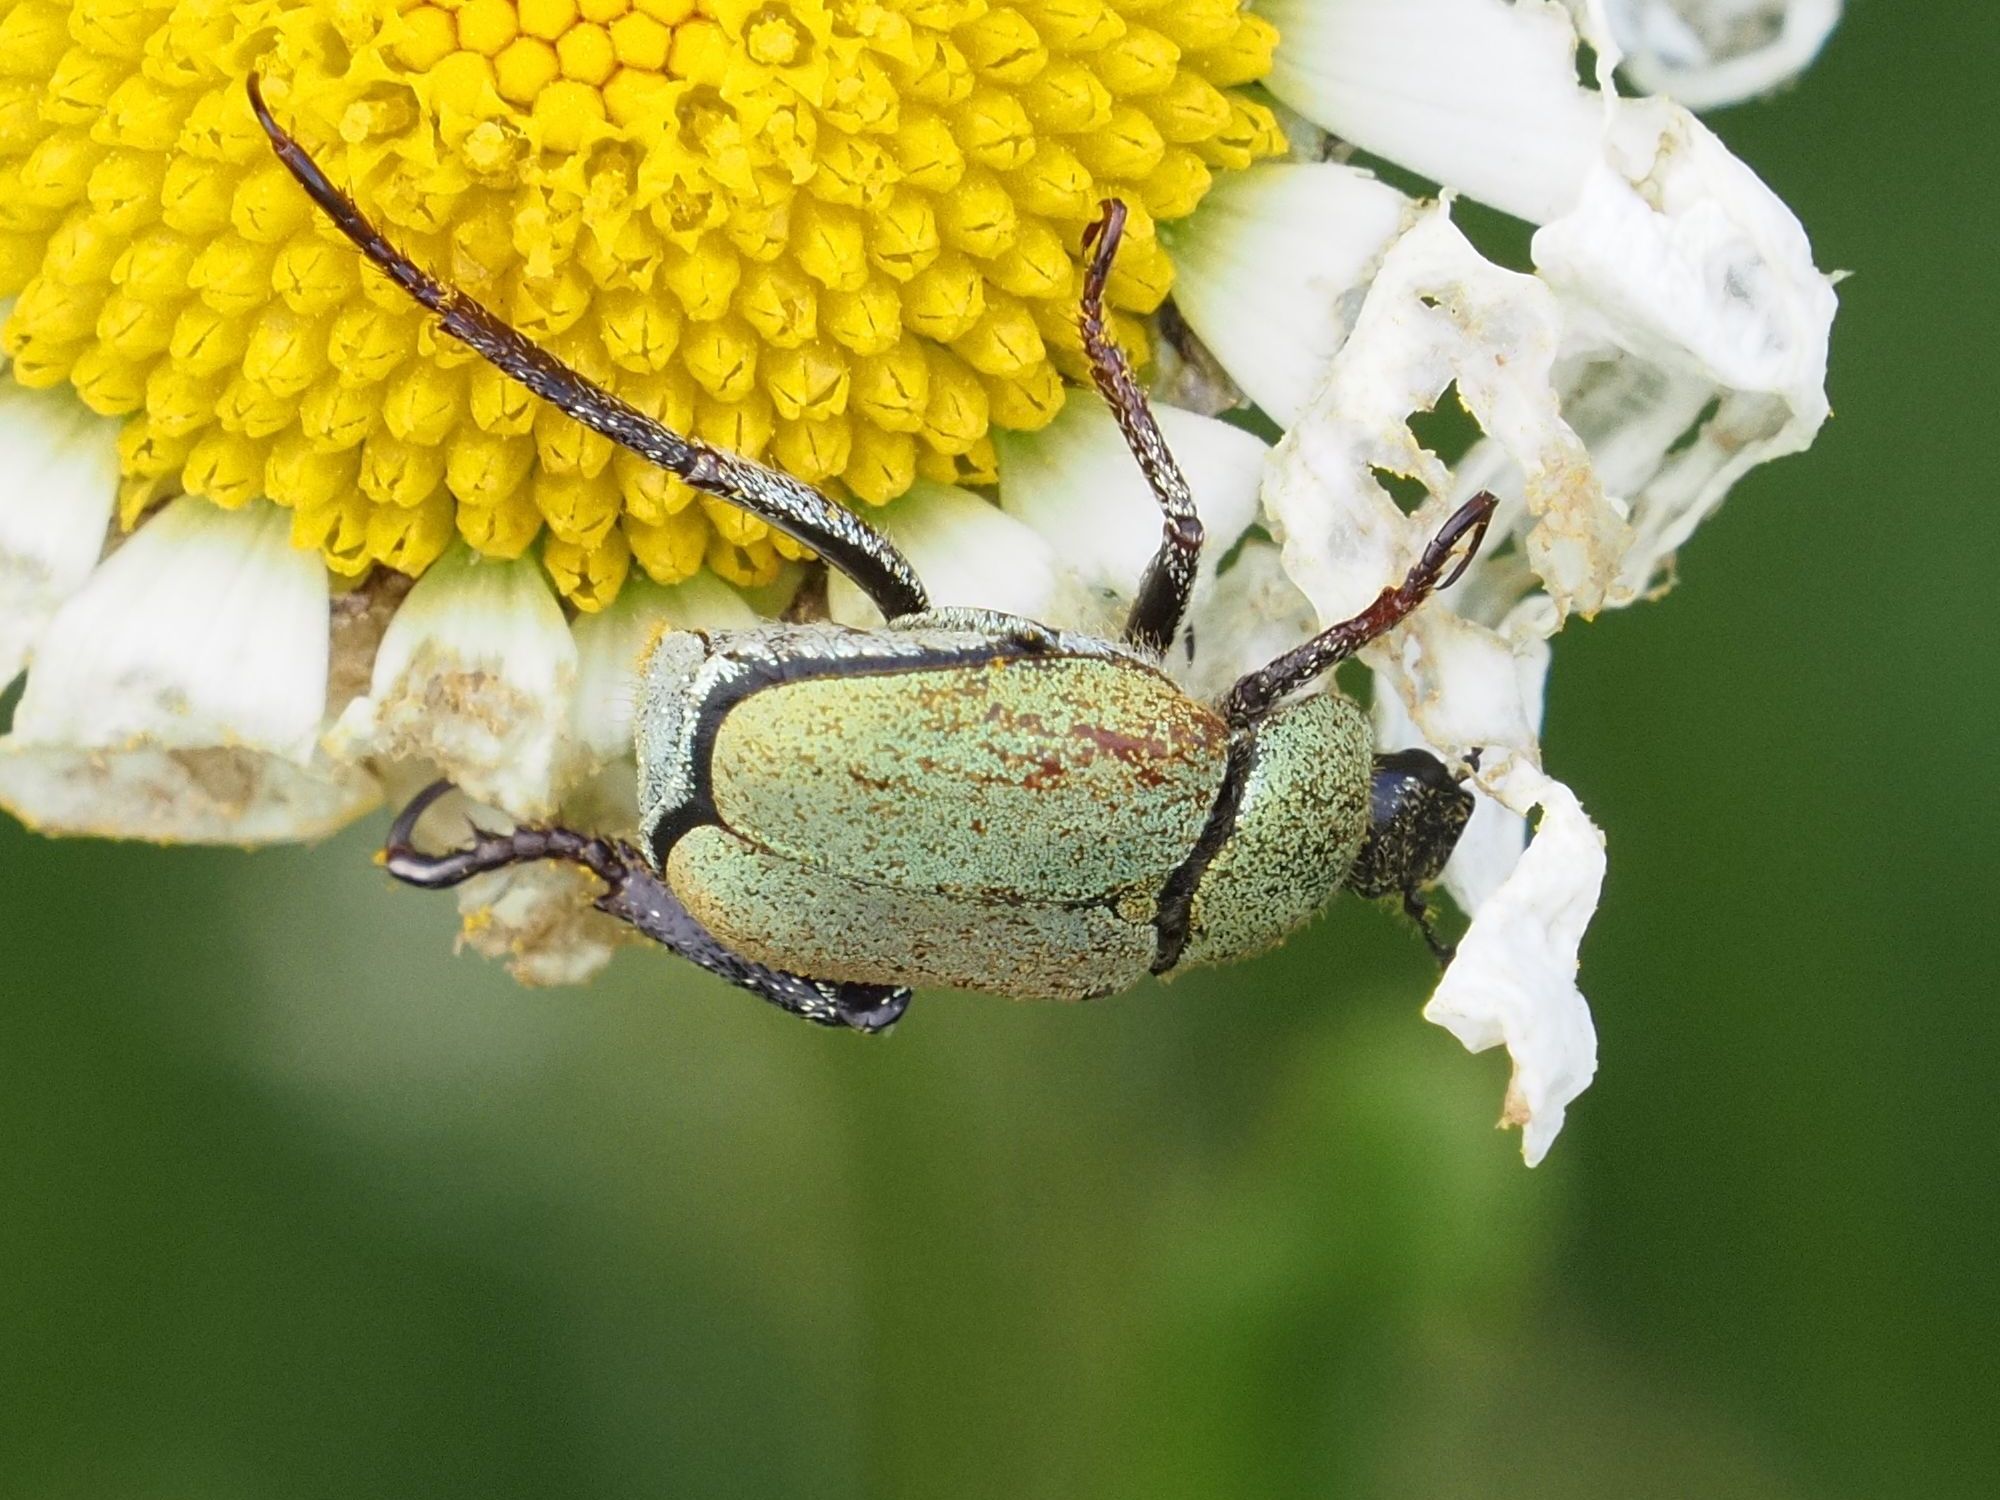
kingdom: Animalia
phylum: Arthropoda
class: Insecta
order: Coleoptera
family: Scarabaeidae
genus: Hoplia
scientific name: Hoplia argentea
